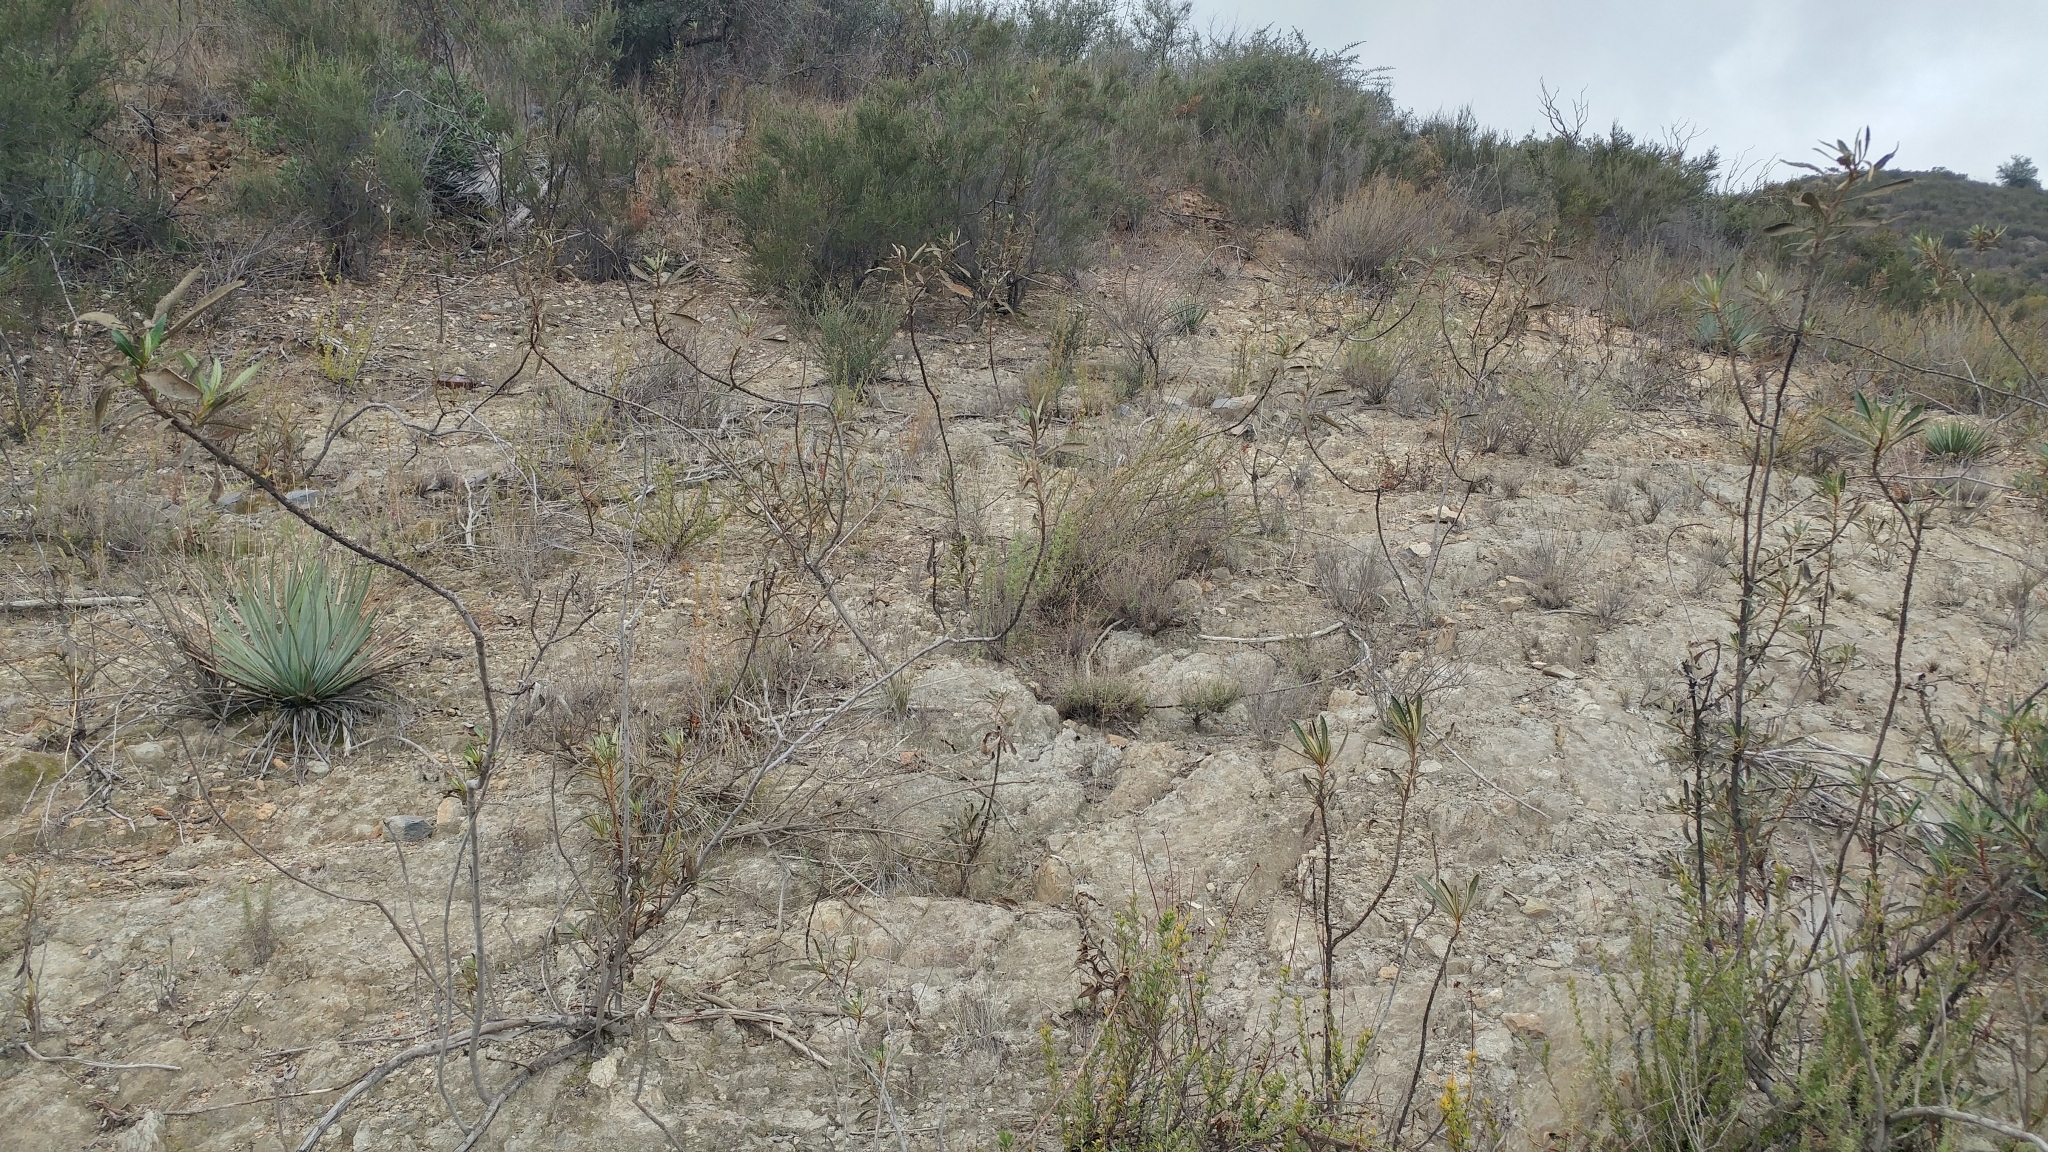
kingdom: Plantae
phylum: Tracheophyta
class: Magnoliopsida
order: Boraginales
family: Namaceae
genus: Eriodictyon
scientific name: Eriodictyon trichocalyx
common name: Hairy yerba-santa
